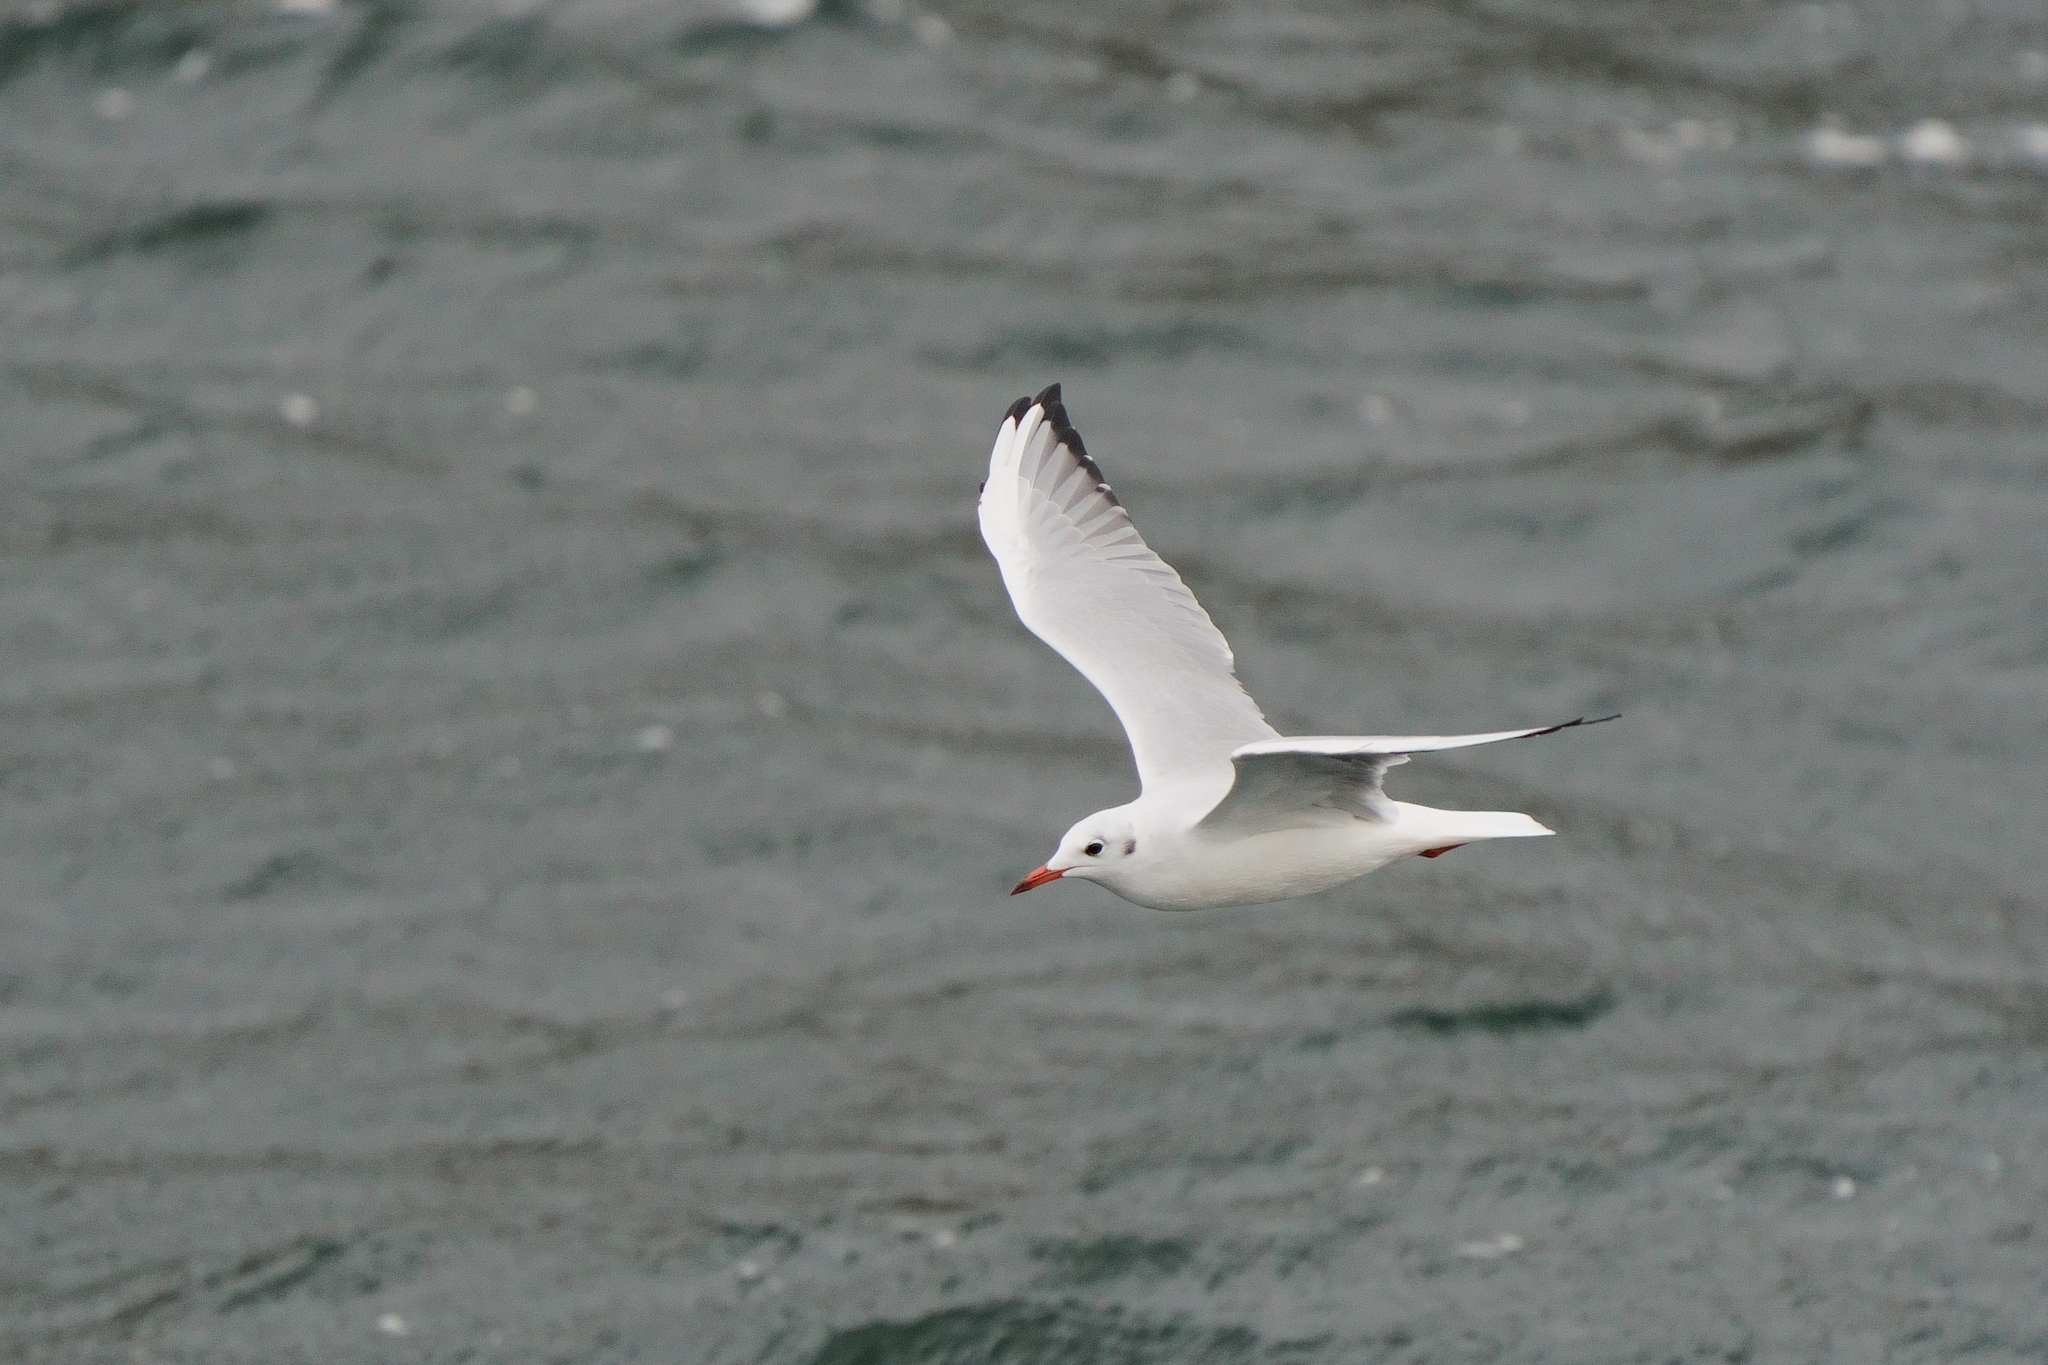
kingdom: Animalia
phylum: Chordata
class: Aves
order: Charadriiformes
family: Laridae
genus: Chroicocephalus
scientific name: Chroicocephalus ridibundus
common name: Black-headed gull
